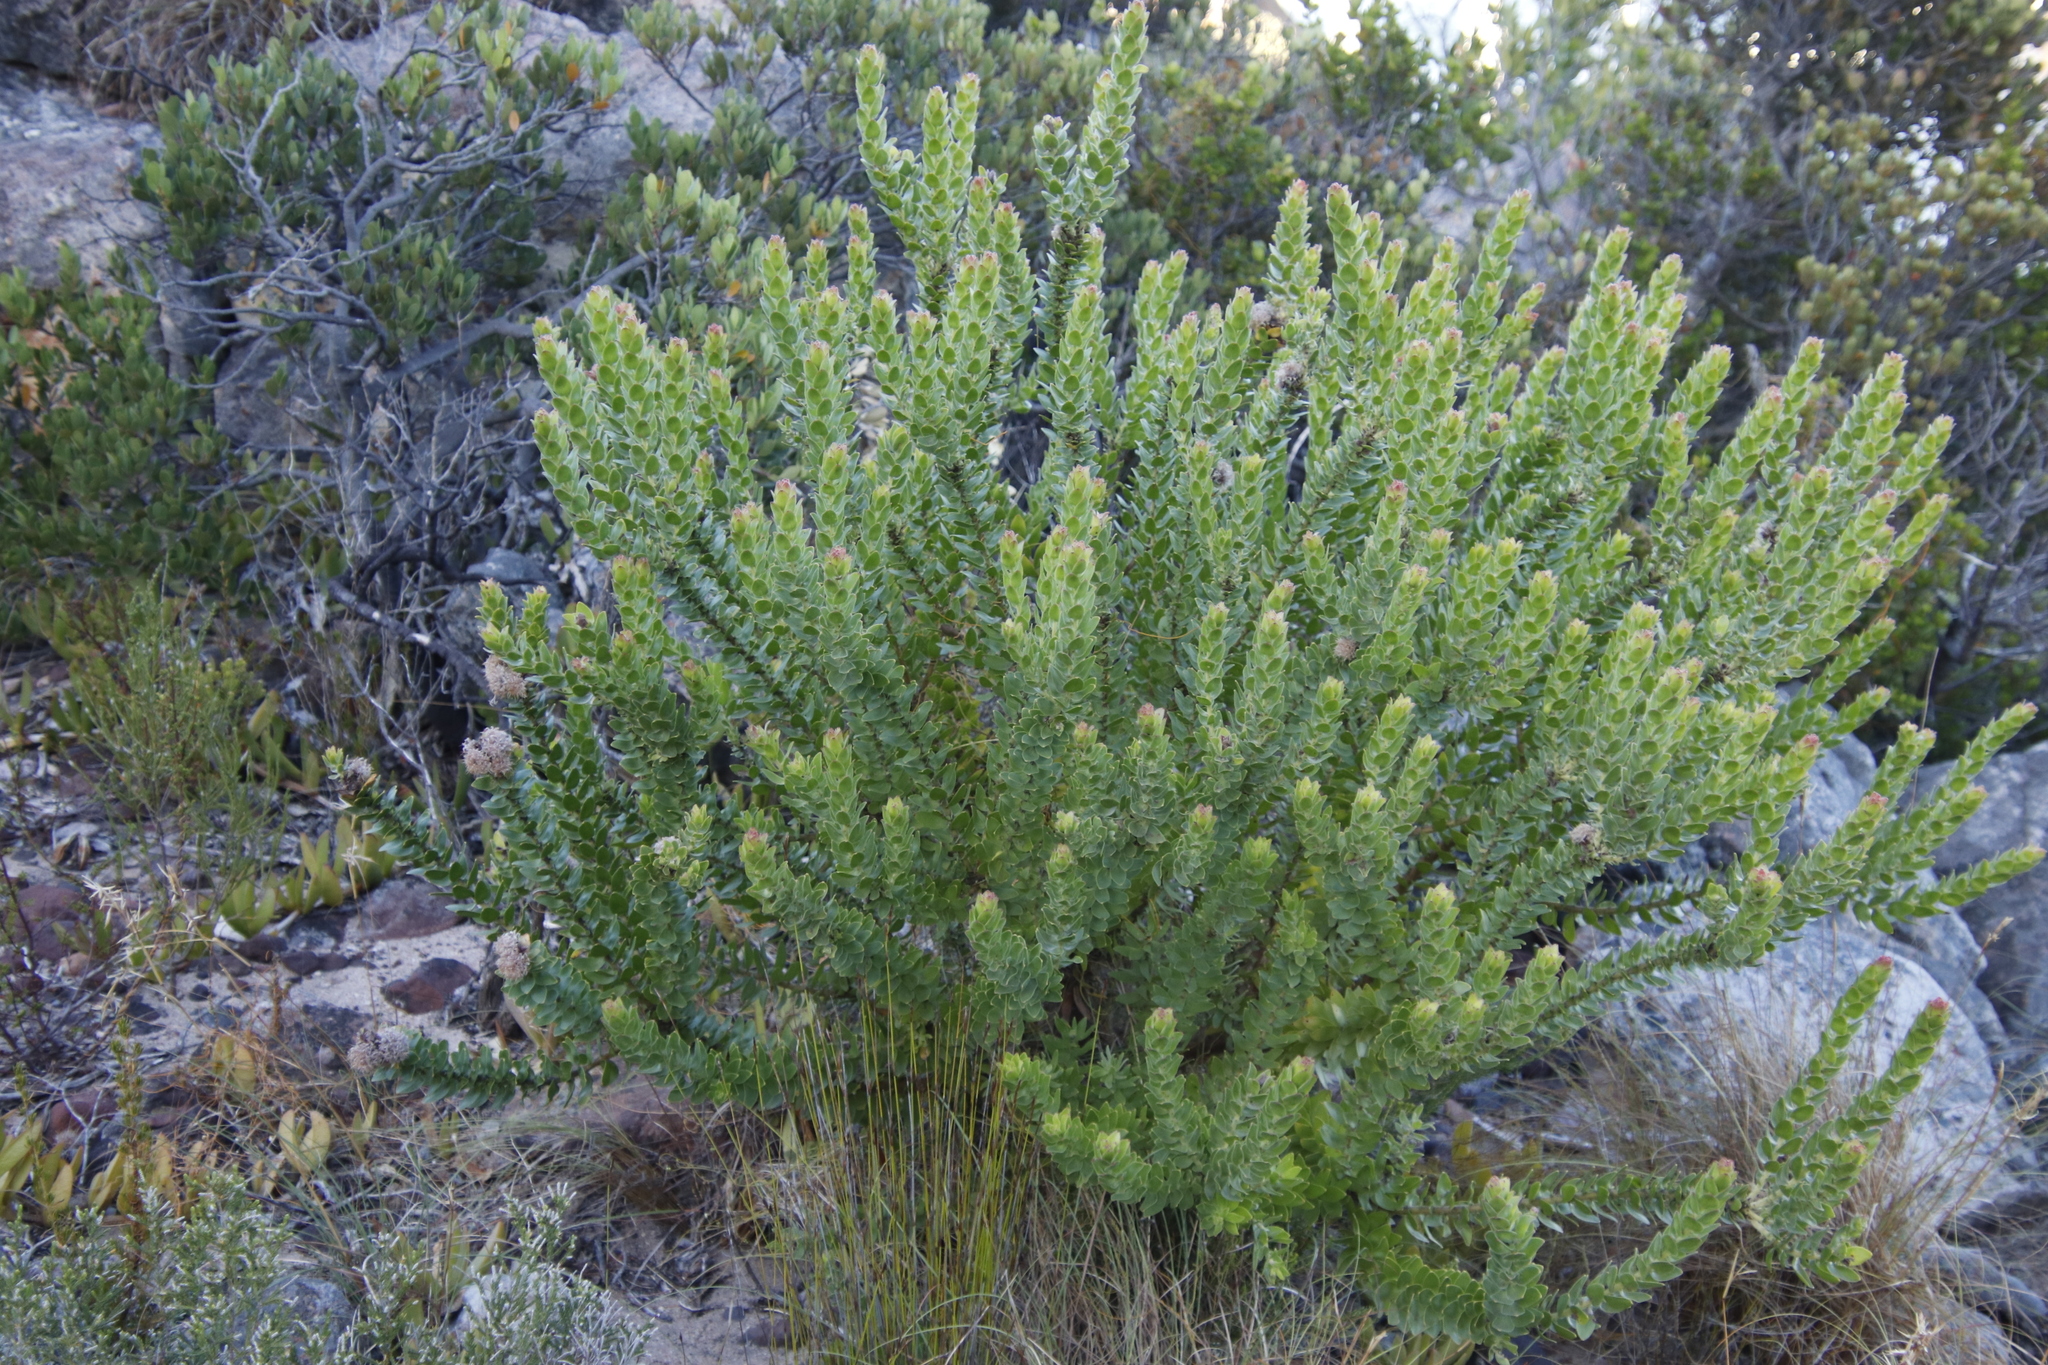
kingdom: Plantae
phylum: Tracheophyta
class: Magnoliopsida
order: Proteales
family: Proteaceae
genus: Leucospermum
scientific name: Leucospermum bolusii
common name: Gordon's bay pincushion
